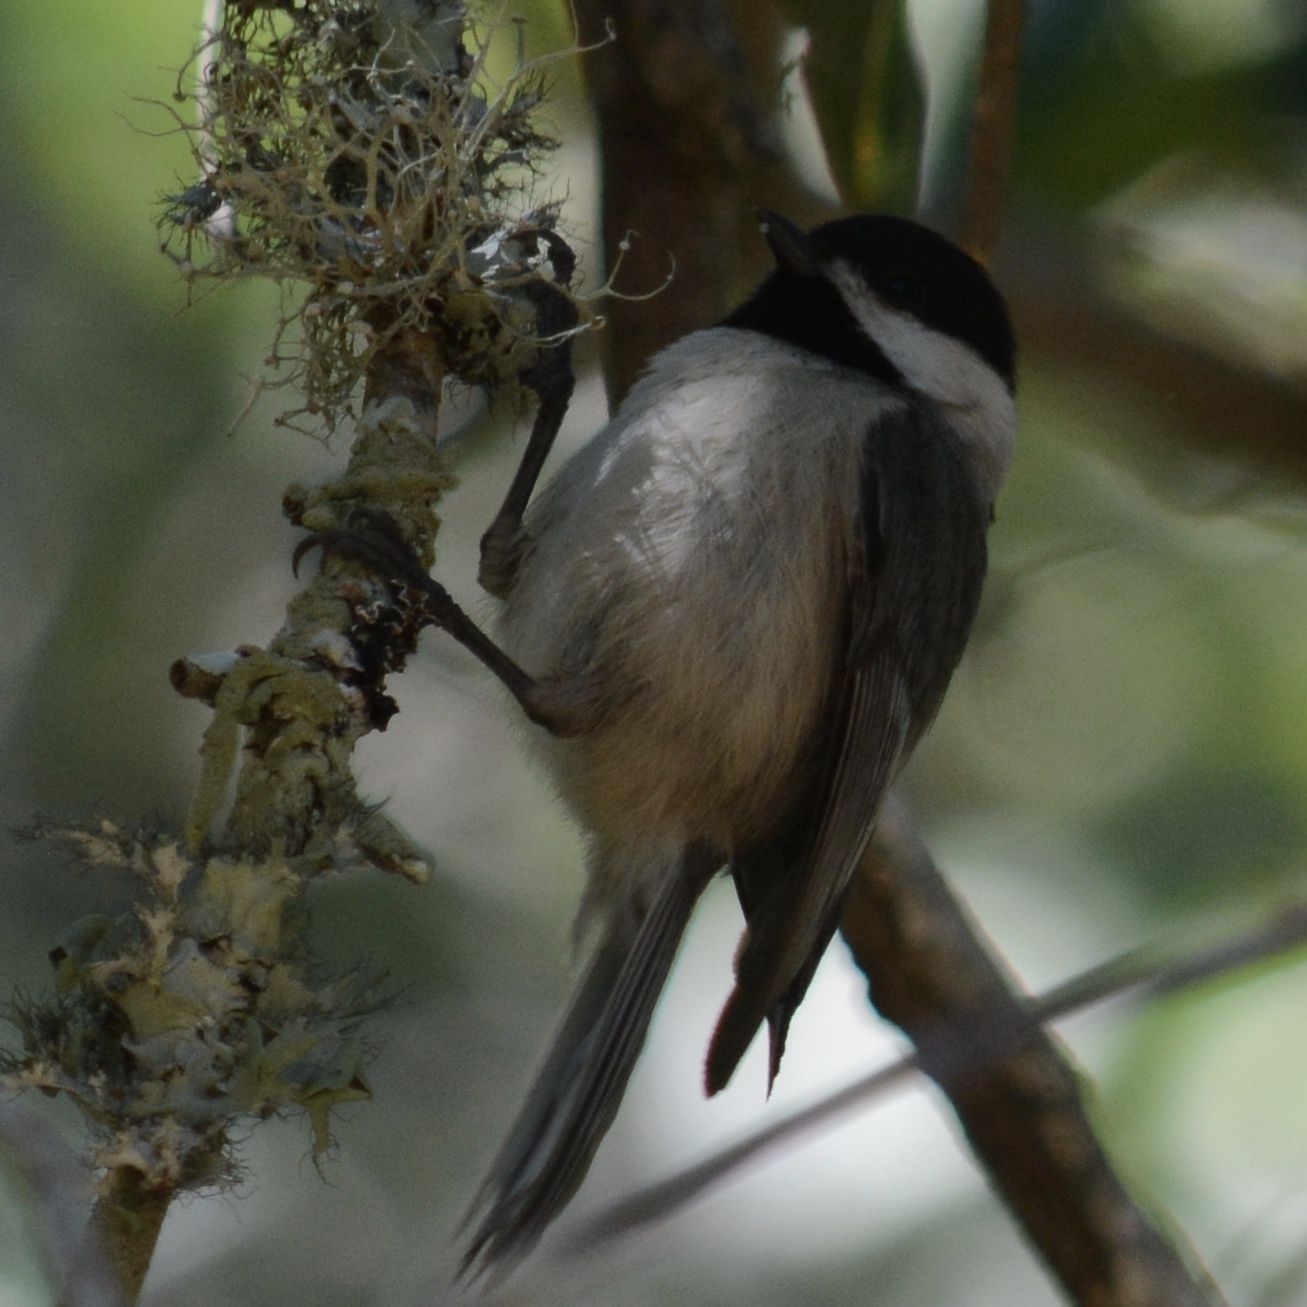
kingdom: Animalia
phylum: Chordata
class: Aves
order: Passeriformes
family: Paridae
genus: Poecile
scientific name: Poecile carolinensis
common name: Carolina chickadee
